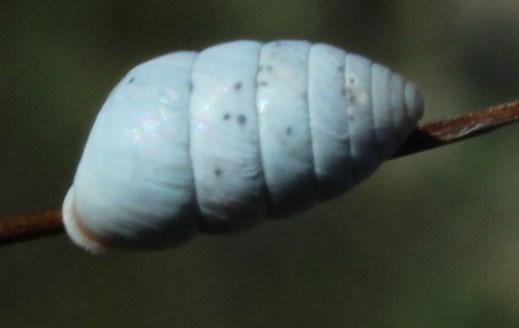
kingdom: Animalia
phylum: Mollusca
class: Gastropoda
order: Stylommatophora
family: Fauxulidae
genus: Fauxulus
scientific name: Fauxulus capensis
